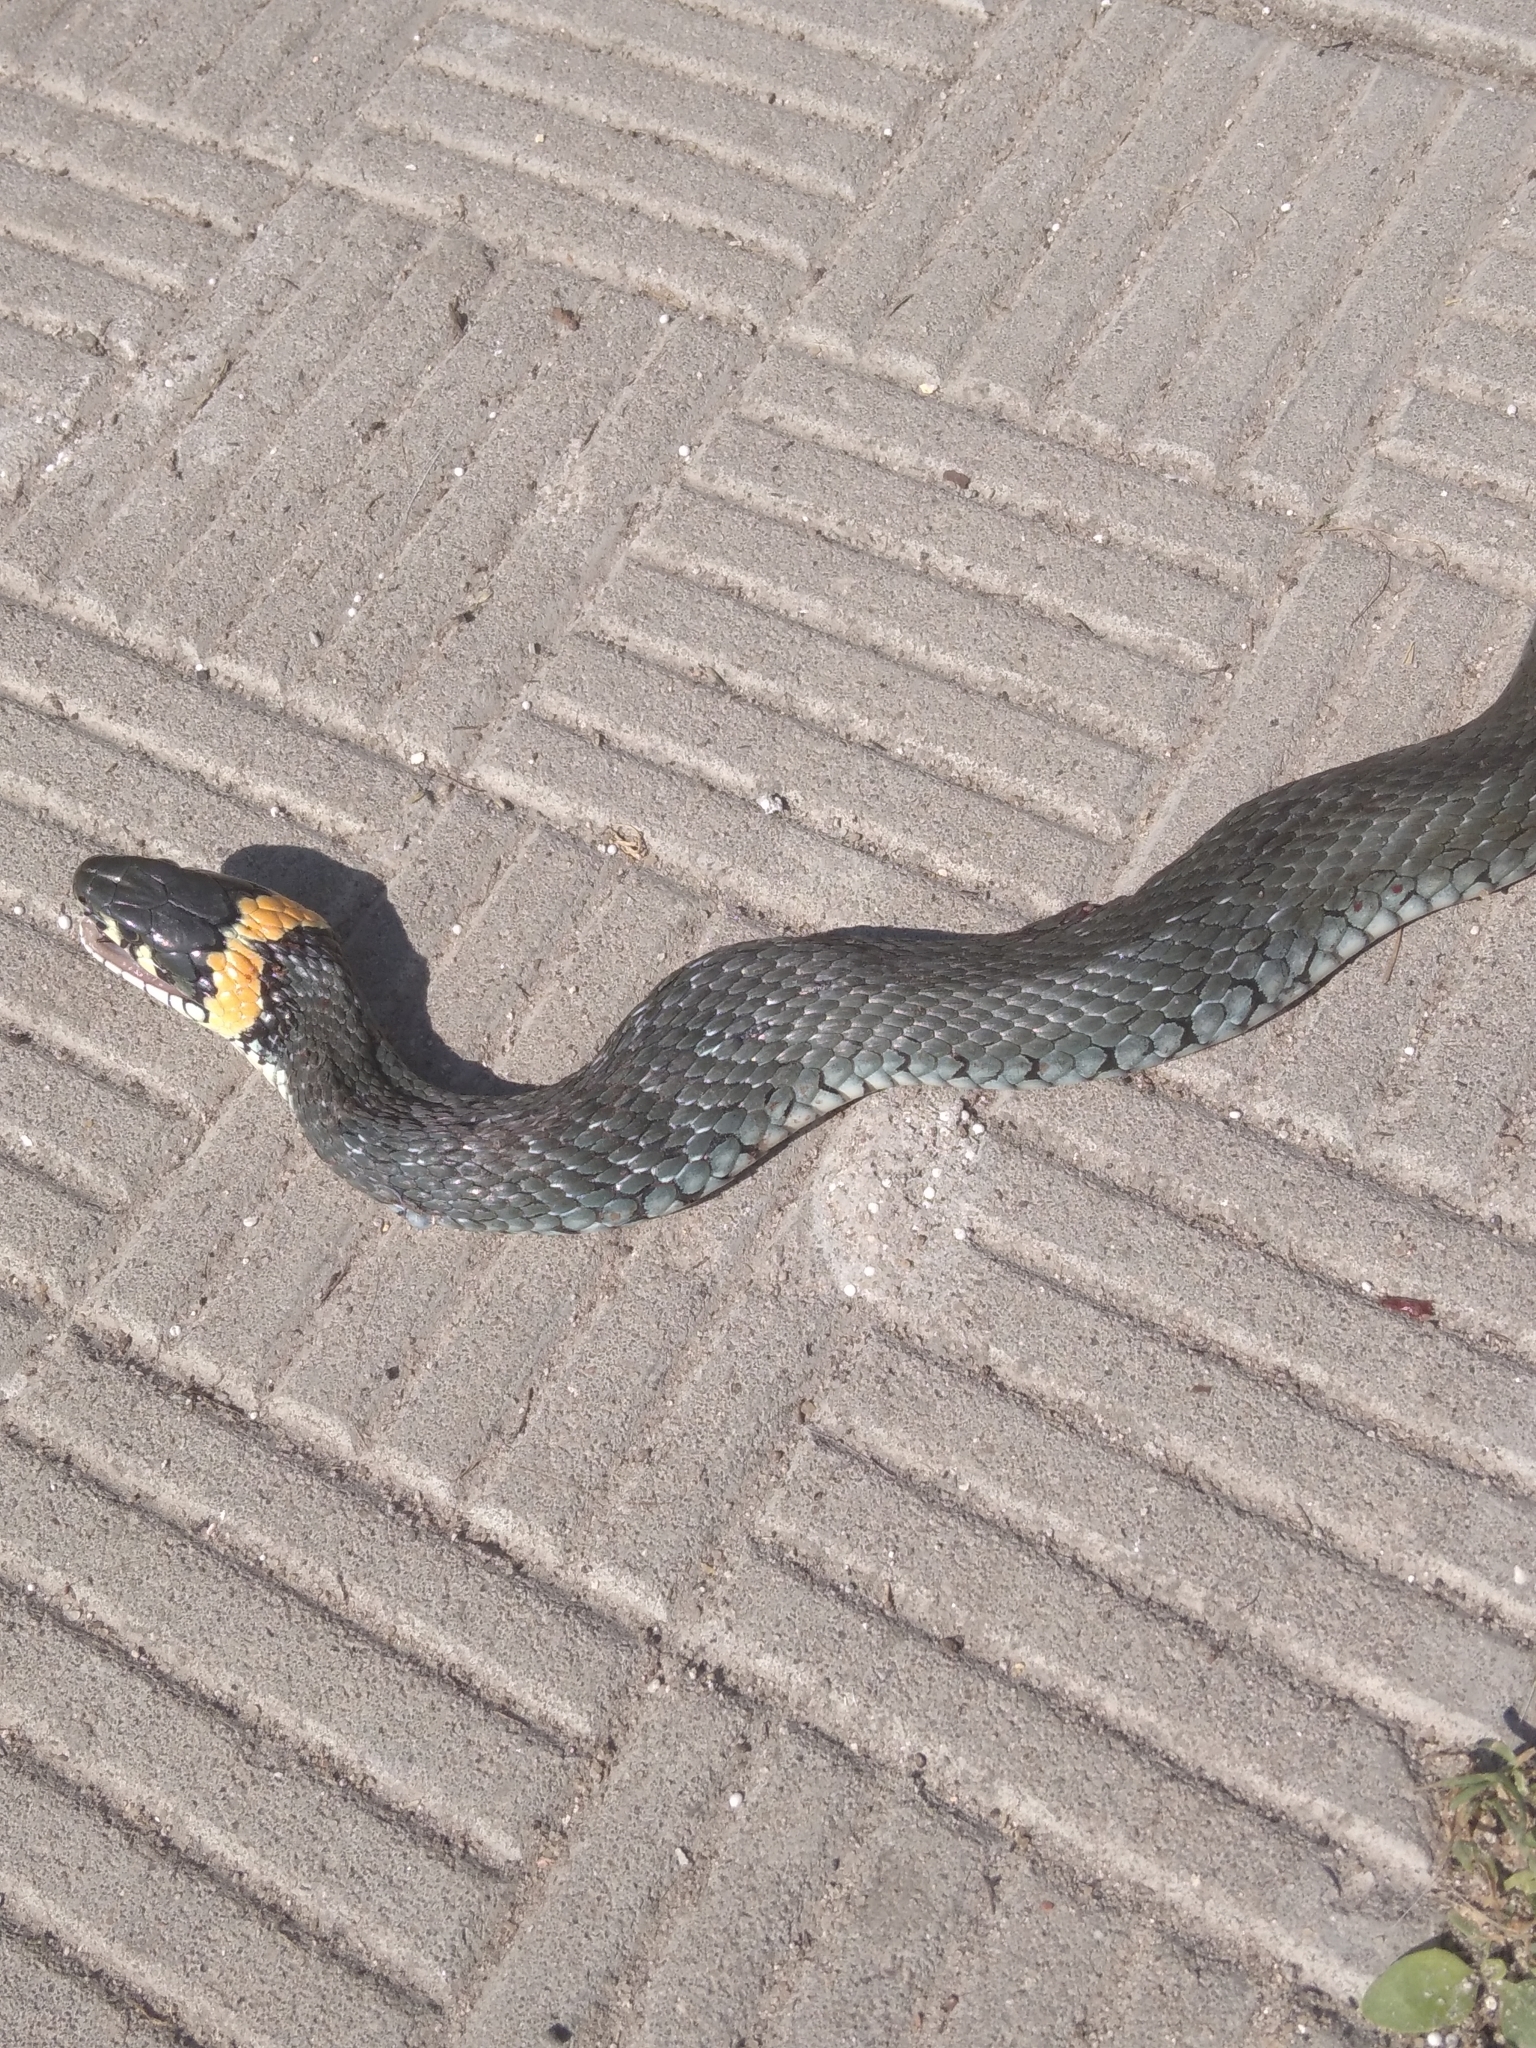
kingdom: Animalia
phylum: Chordata
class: Squamata
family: Colubridae
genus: Natrix
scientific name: Natrix natrix
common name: Grass snake
